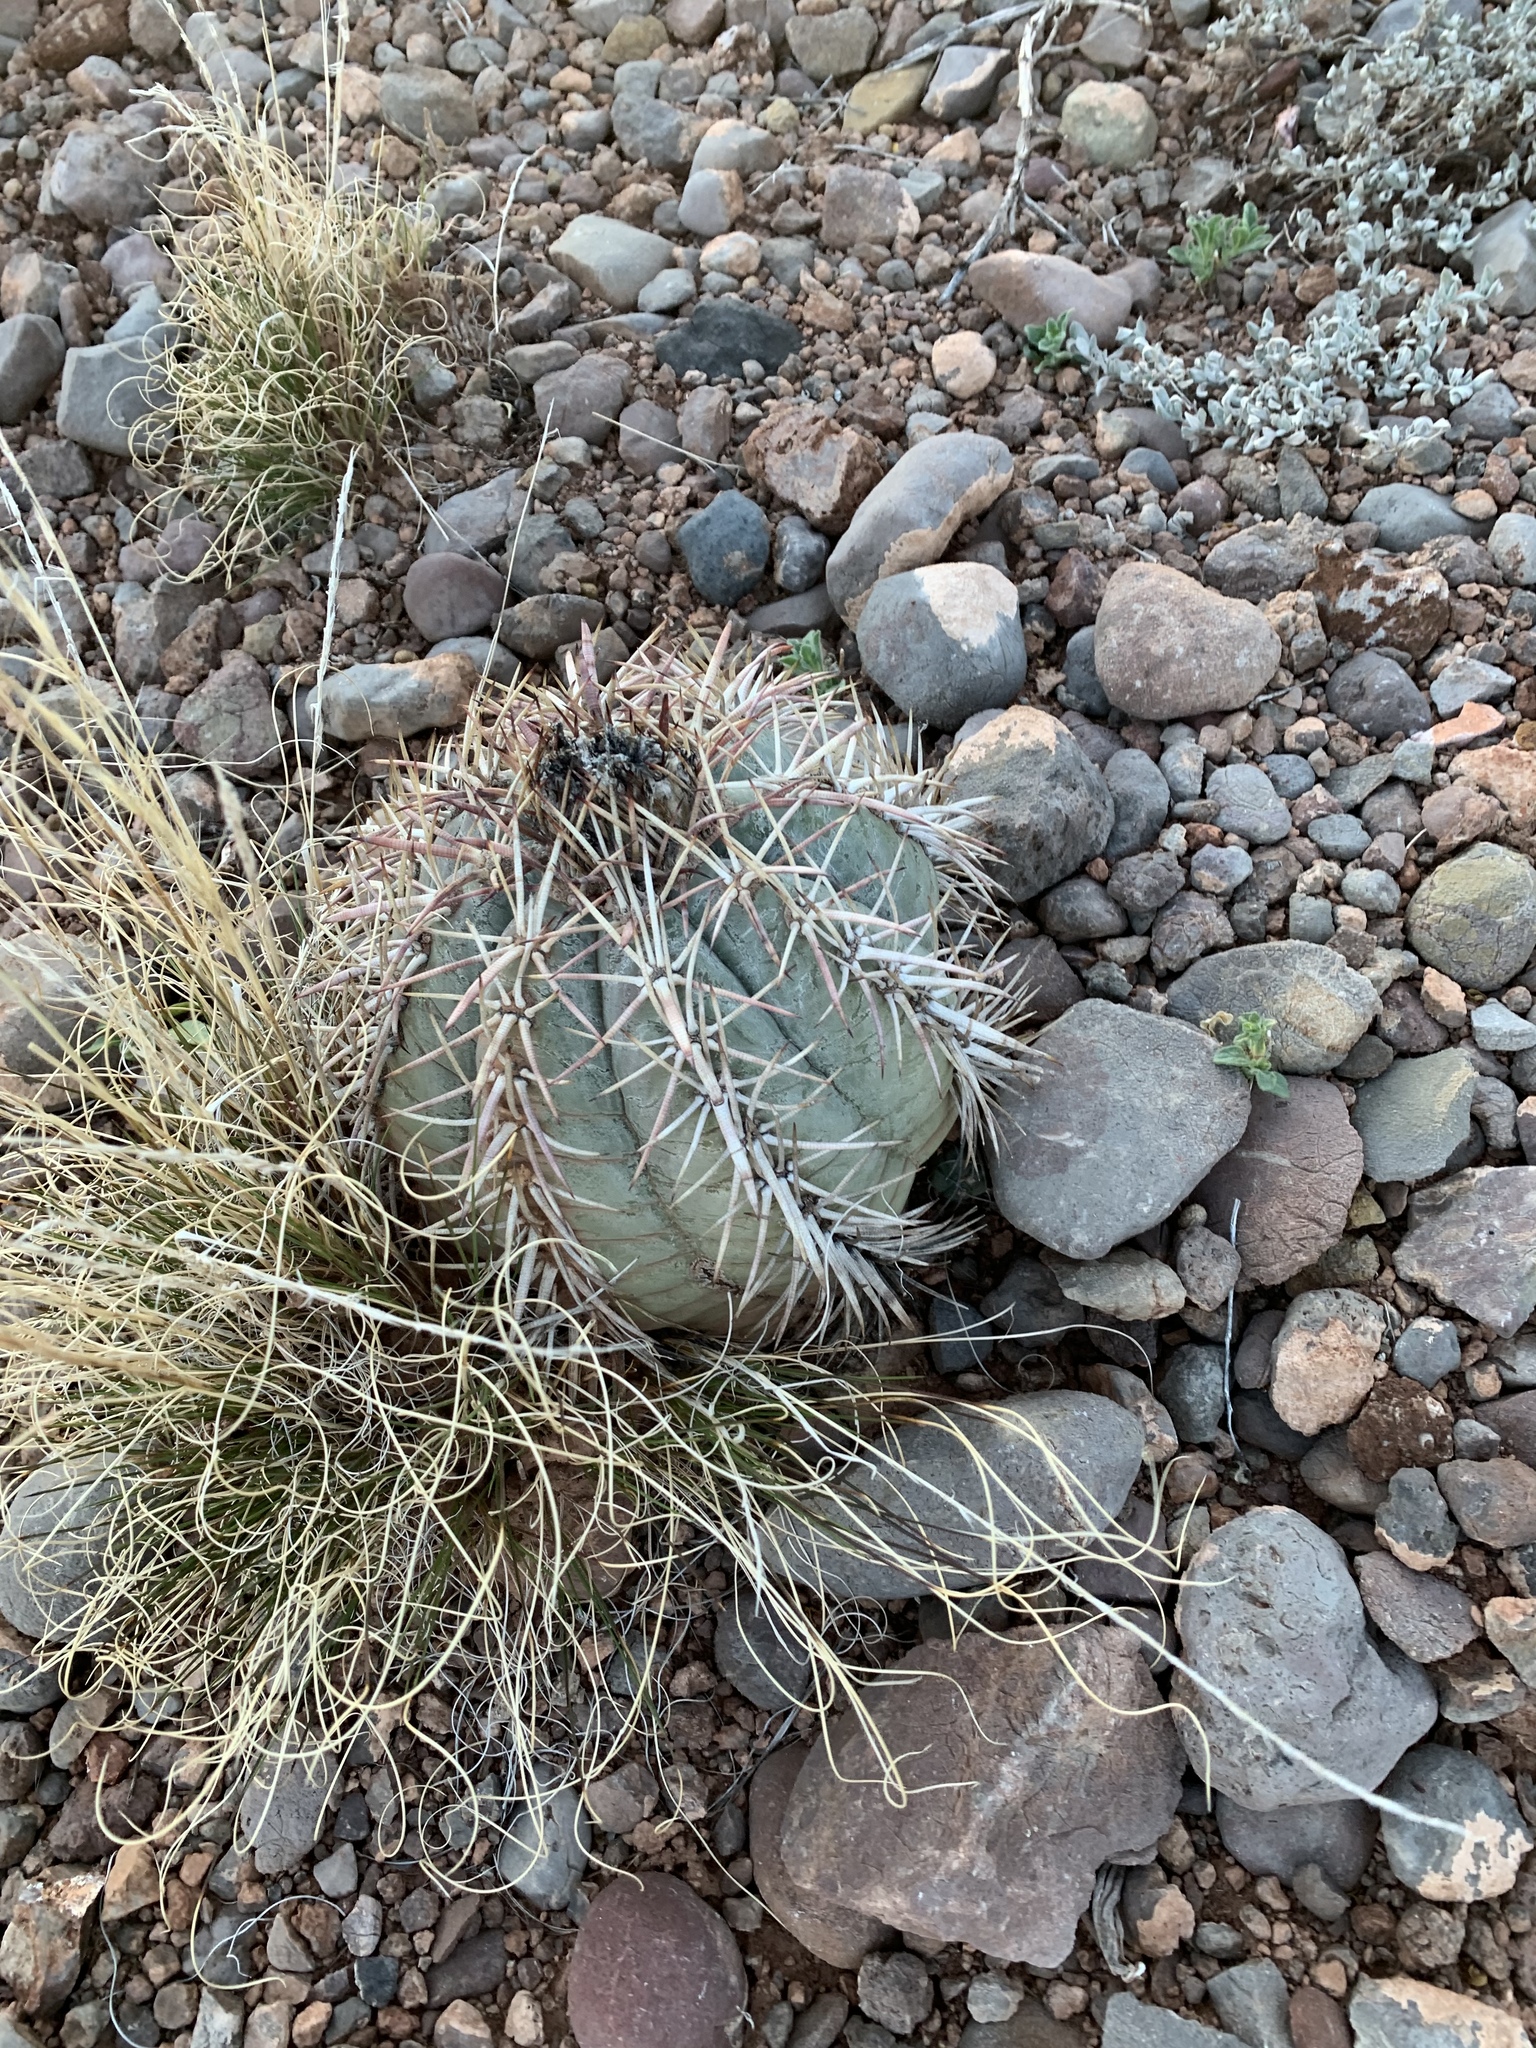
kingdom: Plantae
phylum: Tracheophyta
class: Magnoliopsida
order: Caryophyllales
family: Cactaceae
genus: Echinocactus
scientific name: Echinocactus horizonthalonius
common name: Devilshead
